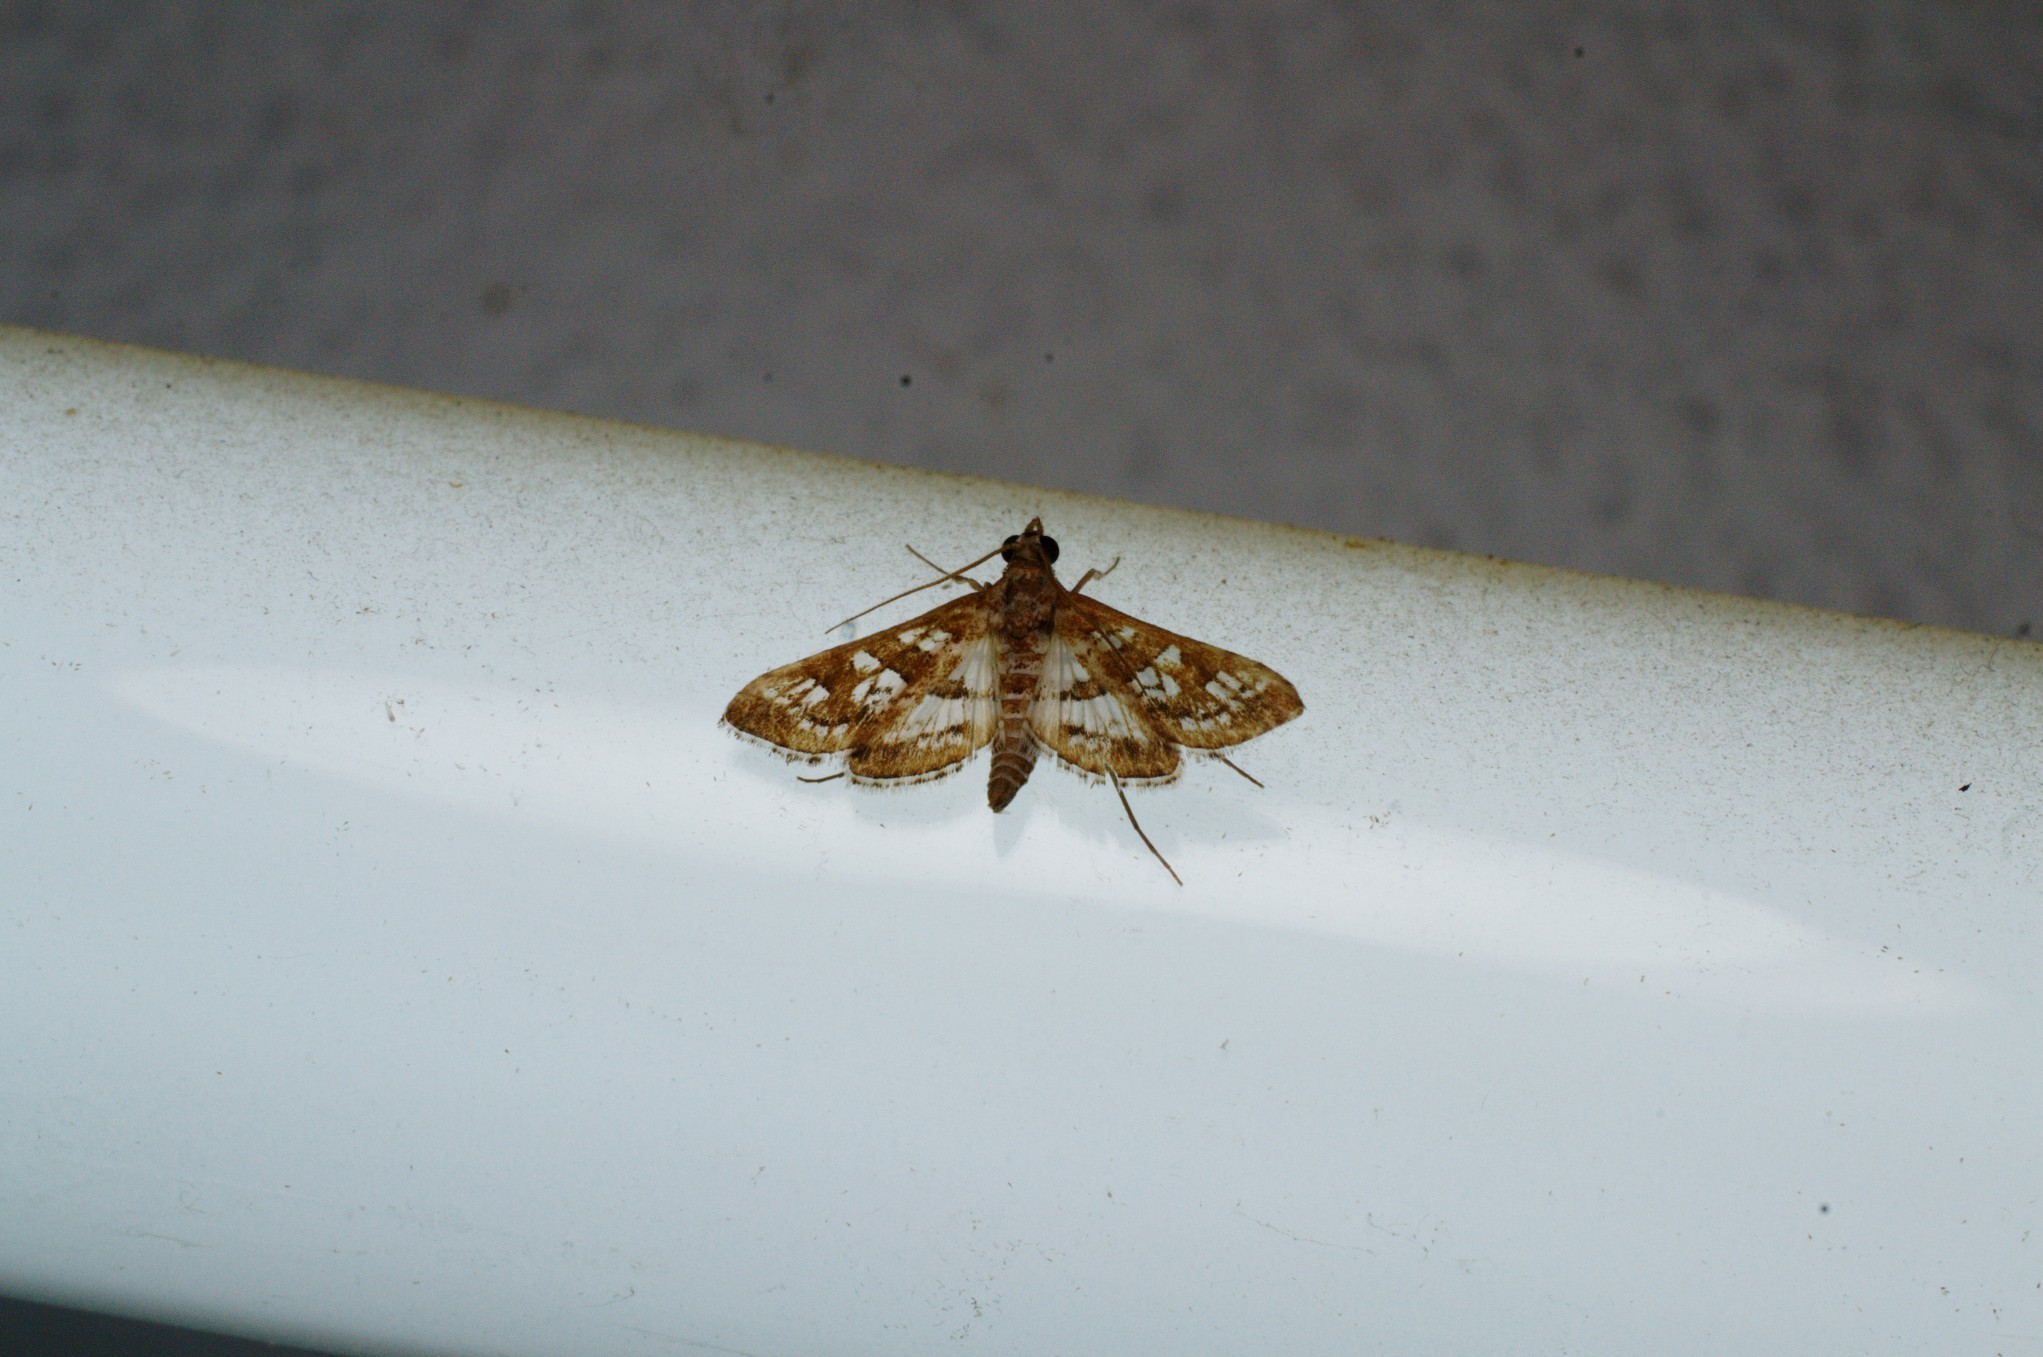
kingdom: Animalia
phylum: Arthropoda
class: Insecta
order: Lepidoptera
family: Crambidae
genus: Sameodes
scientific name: Sameodes cancellalis
